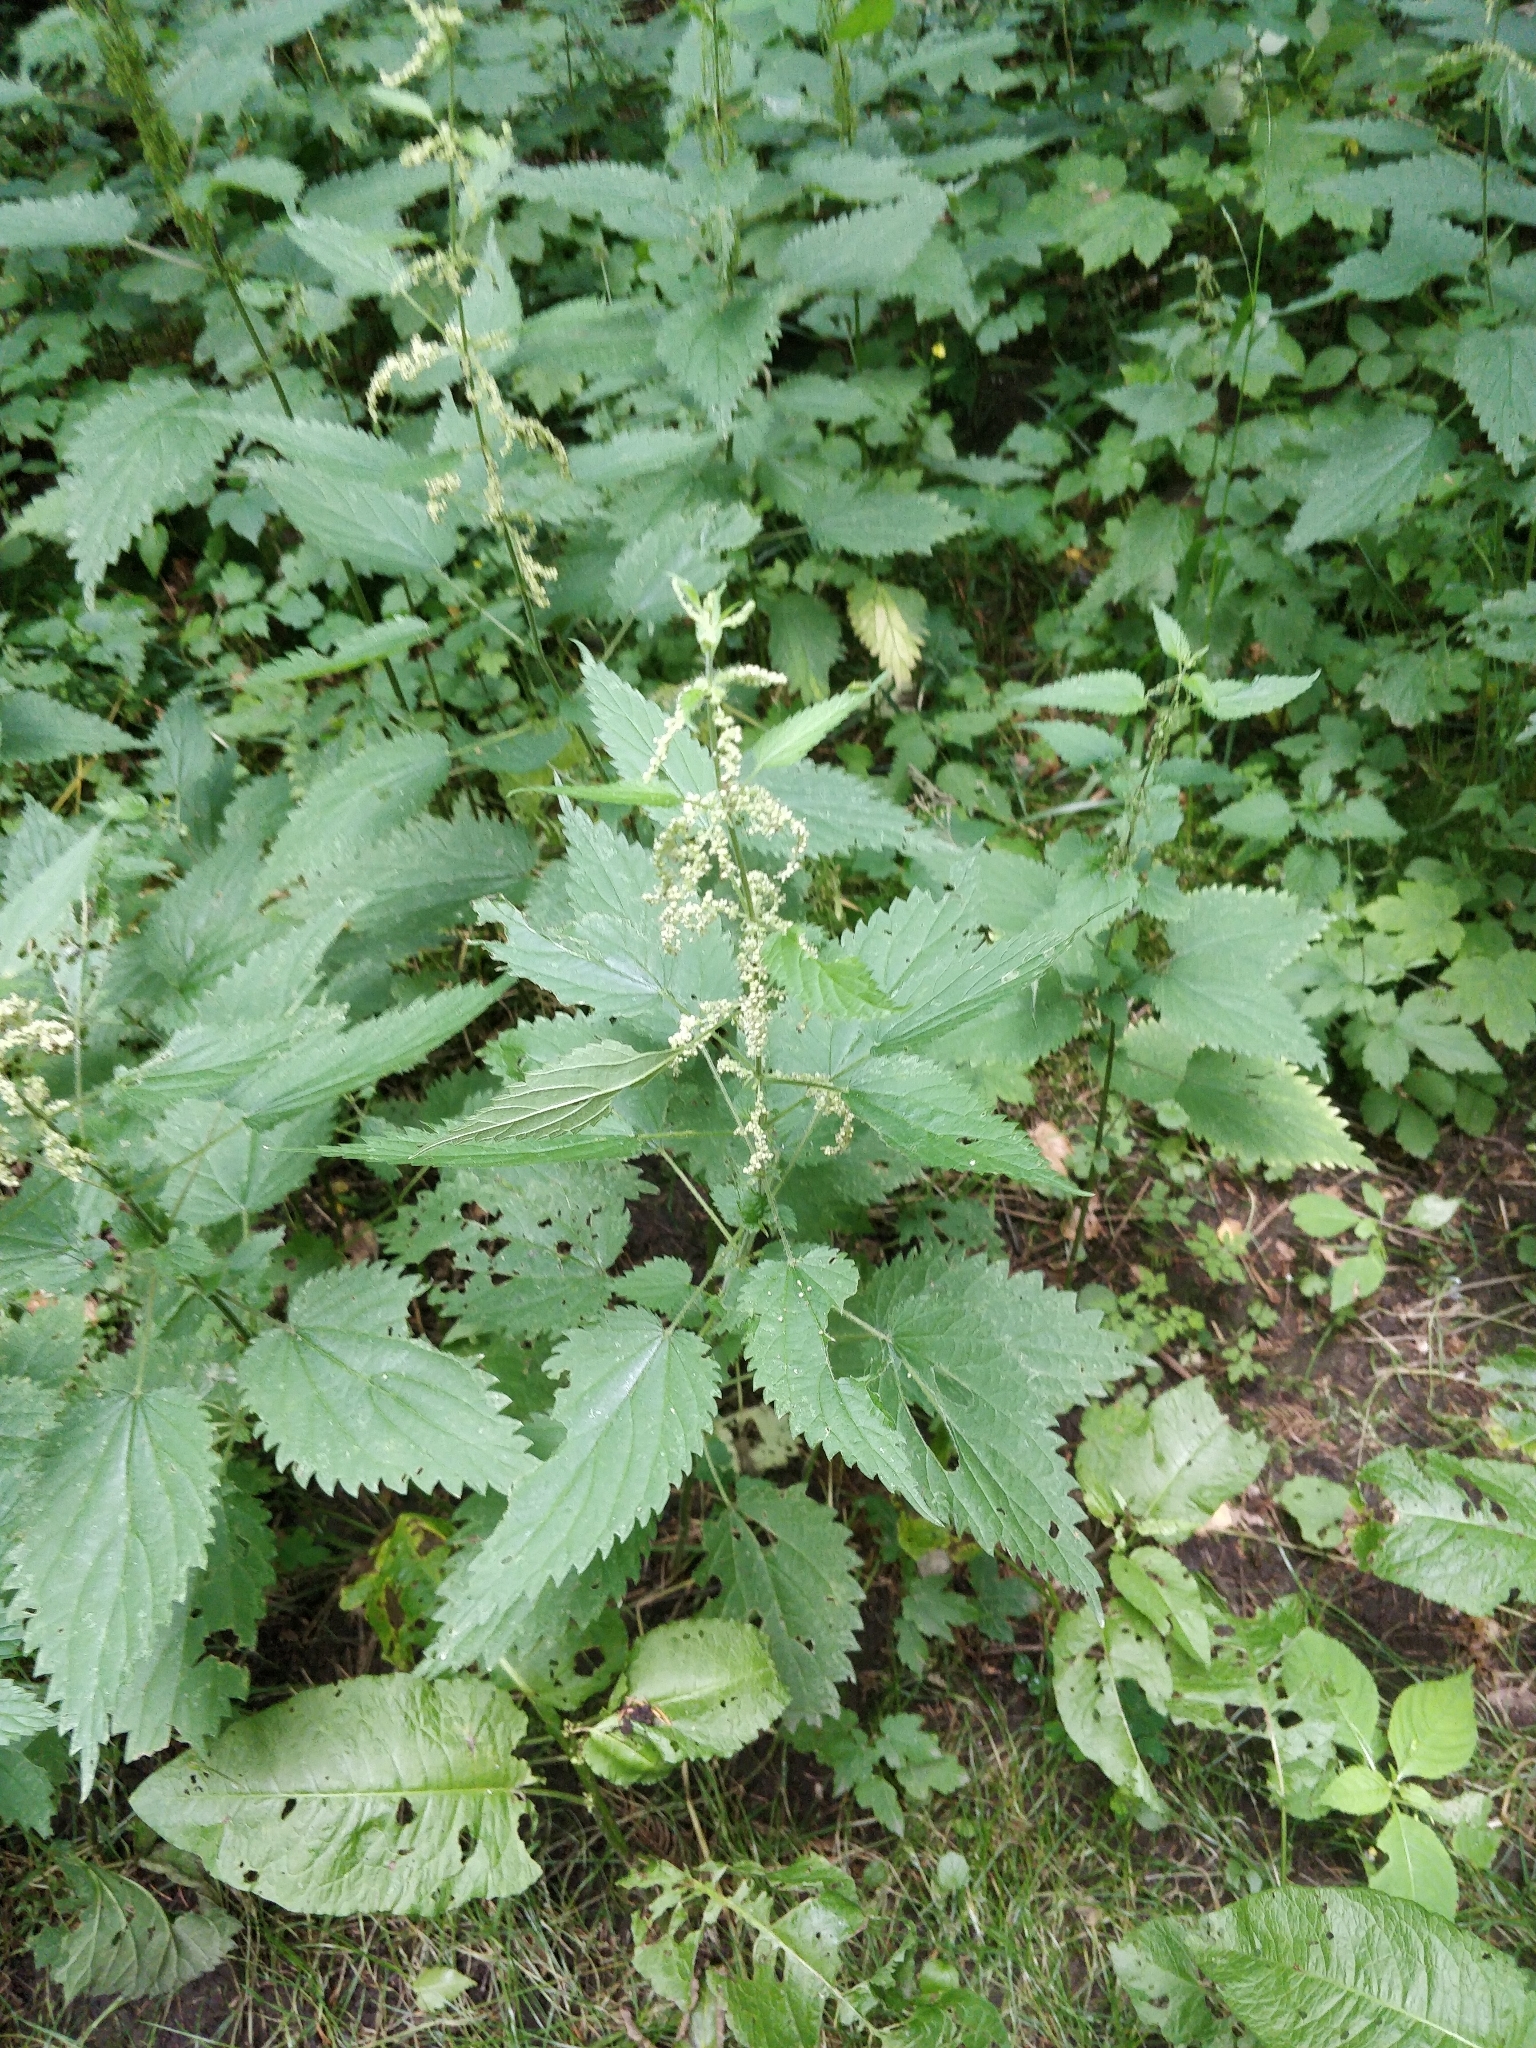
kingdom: Plantae
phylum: Tracheophyta
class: Magnoliopsida
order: Rosales
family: Urticaceae
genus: Urtica
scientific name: Urtica dioica
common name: Common nettle
